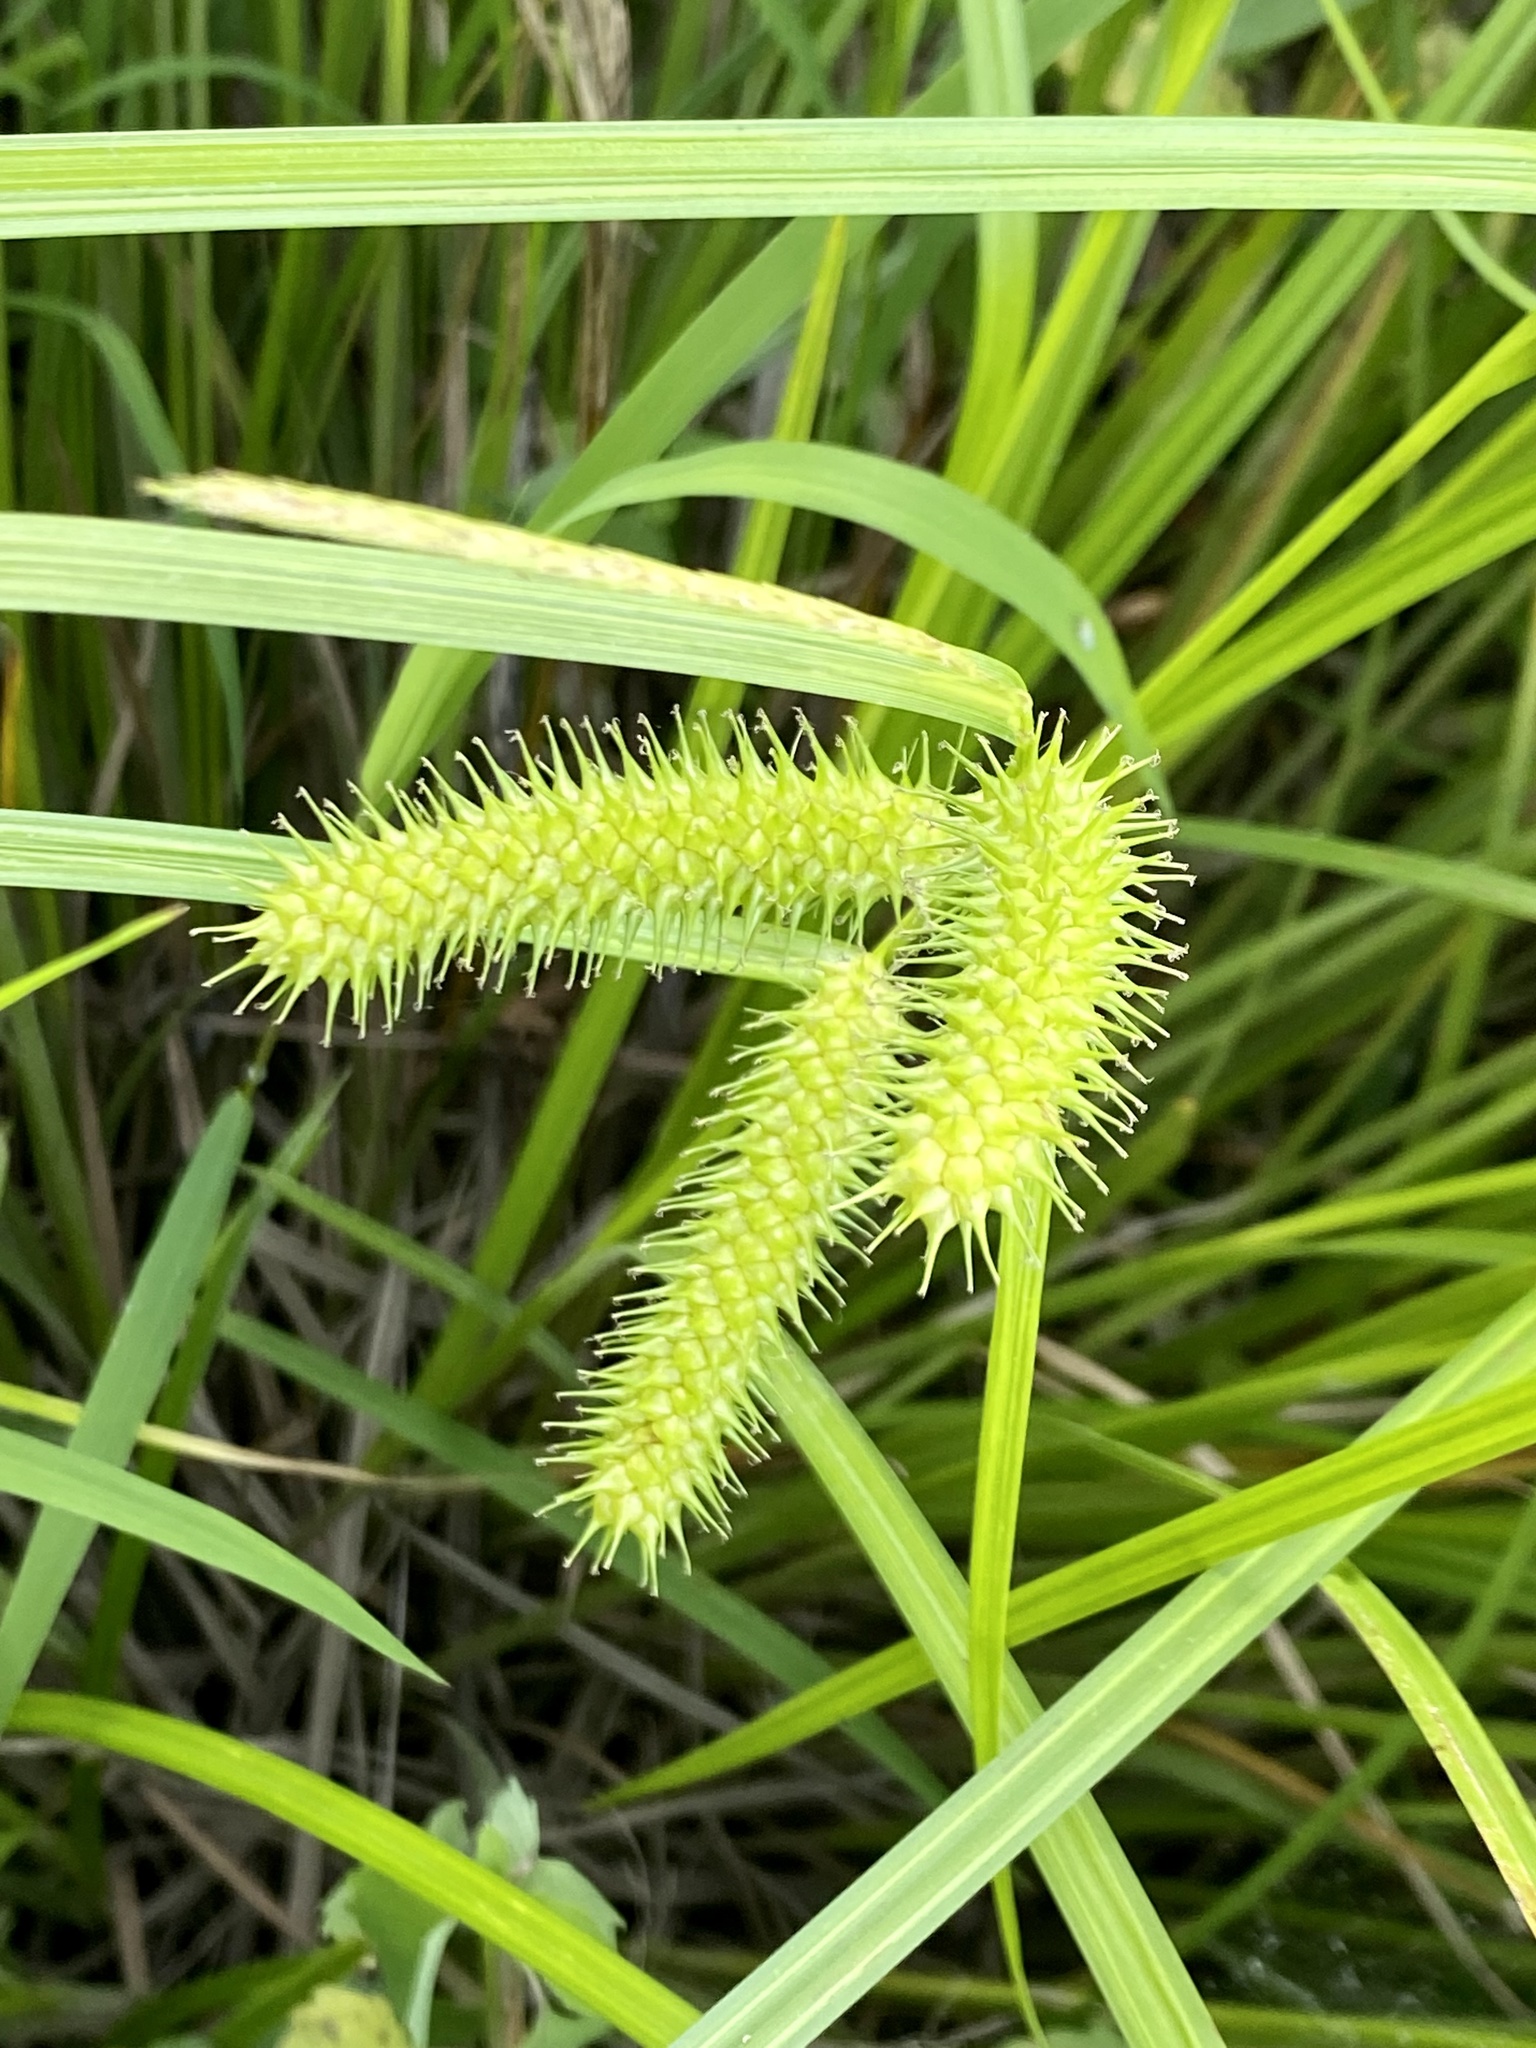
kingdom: Plantae
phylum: Tracheophyta
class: Liliopsida
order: Poales
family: Cyperaceae
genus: Carex
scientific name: Carex lurida
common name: Sallow sedge
